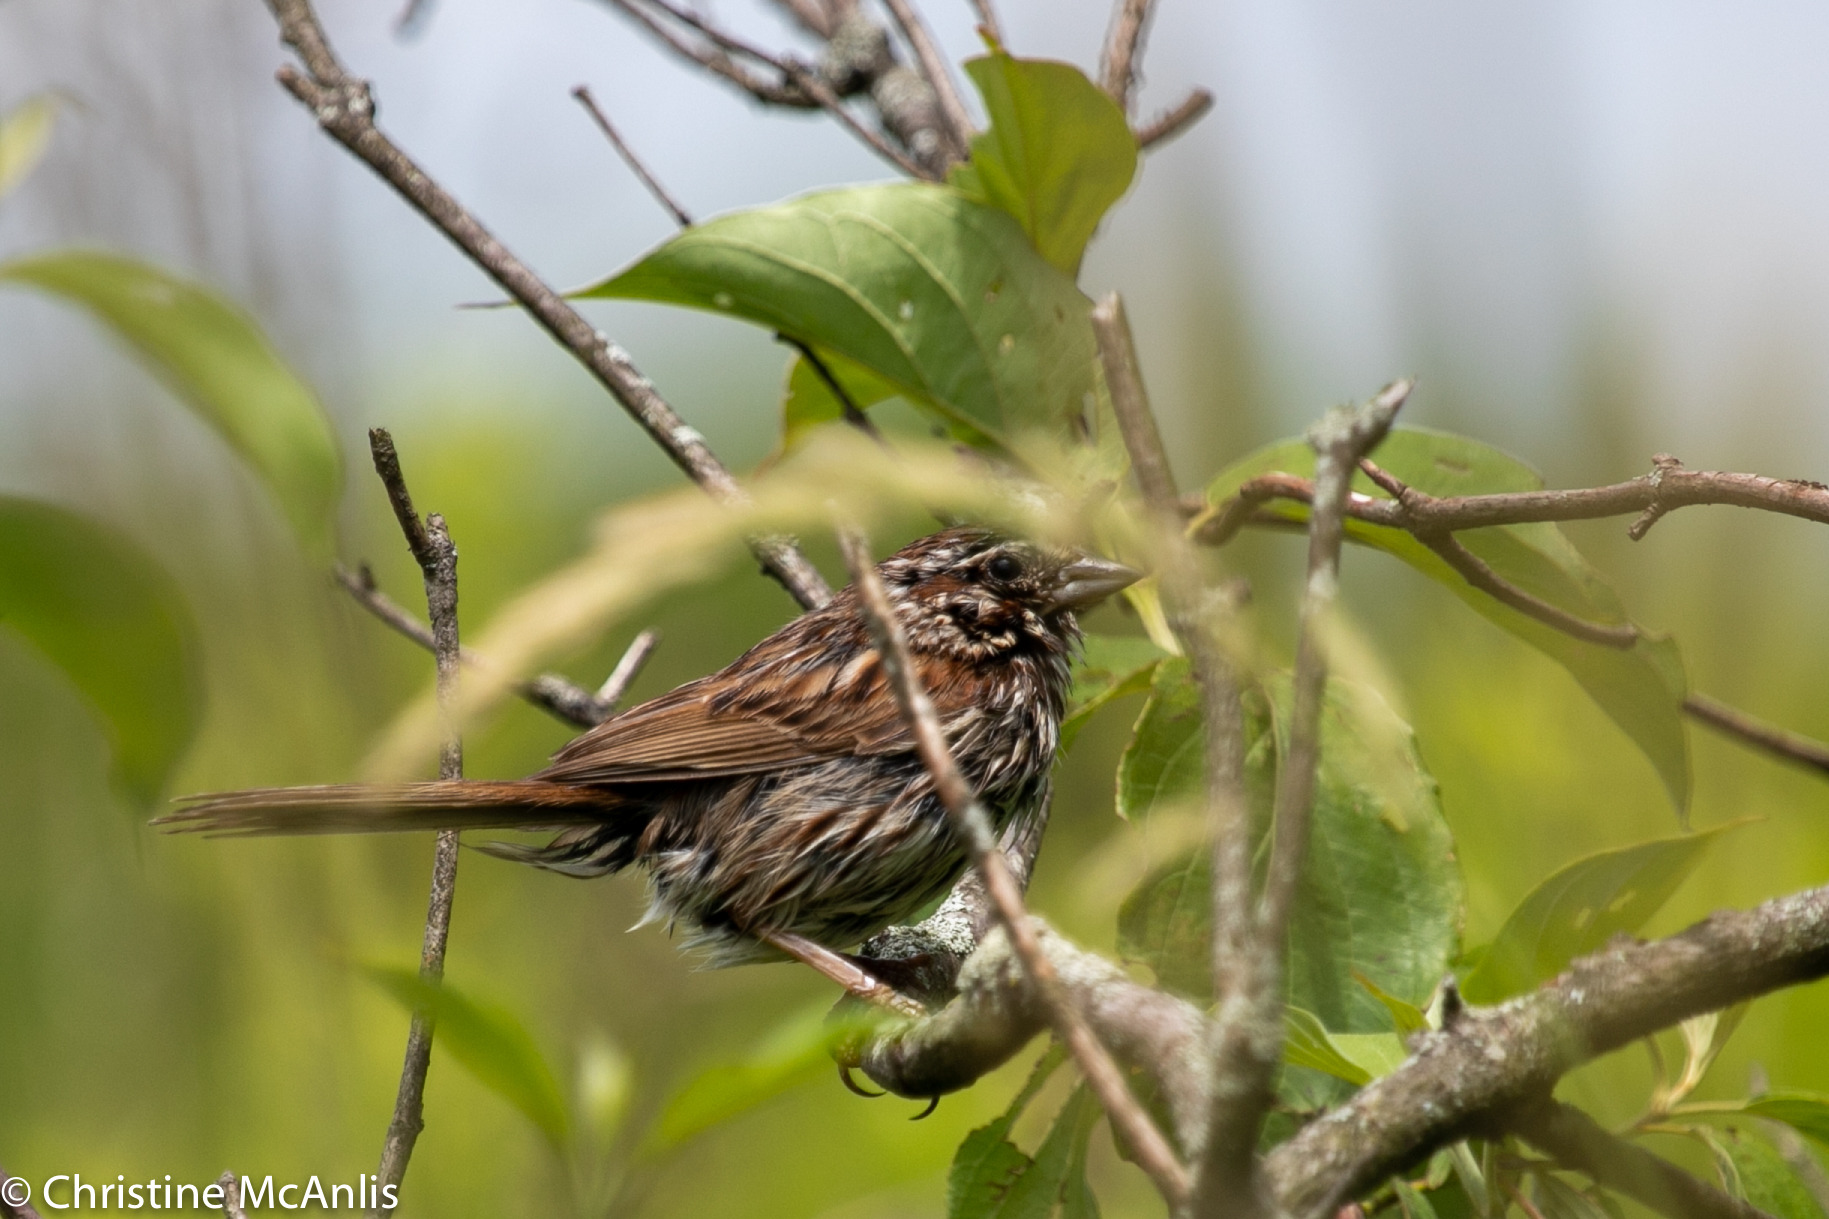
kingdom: Animalia
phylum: Chordata
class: Aves
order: Passeriformes
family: Passerellidae
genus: Melospiza
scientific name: Melospiza melodia
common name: Song sparrow
